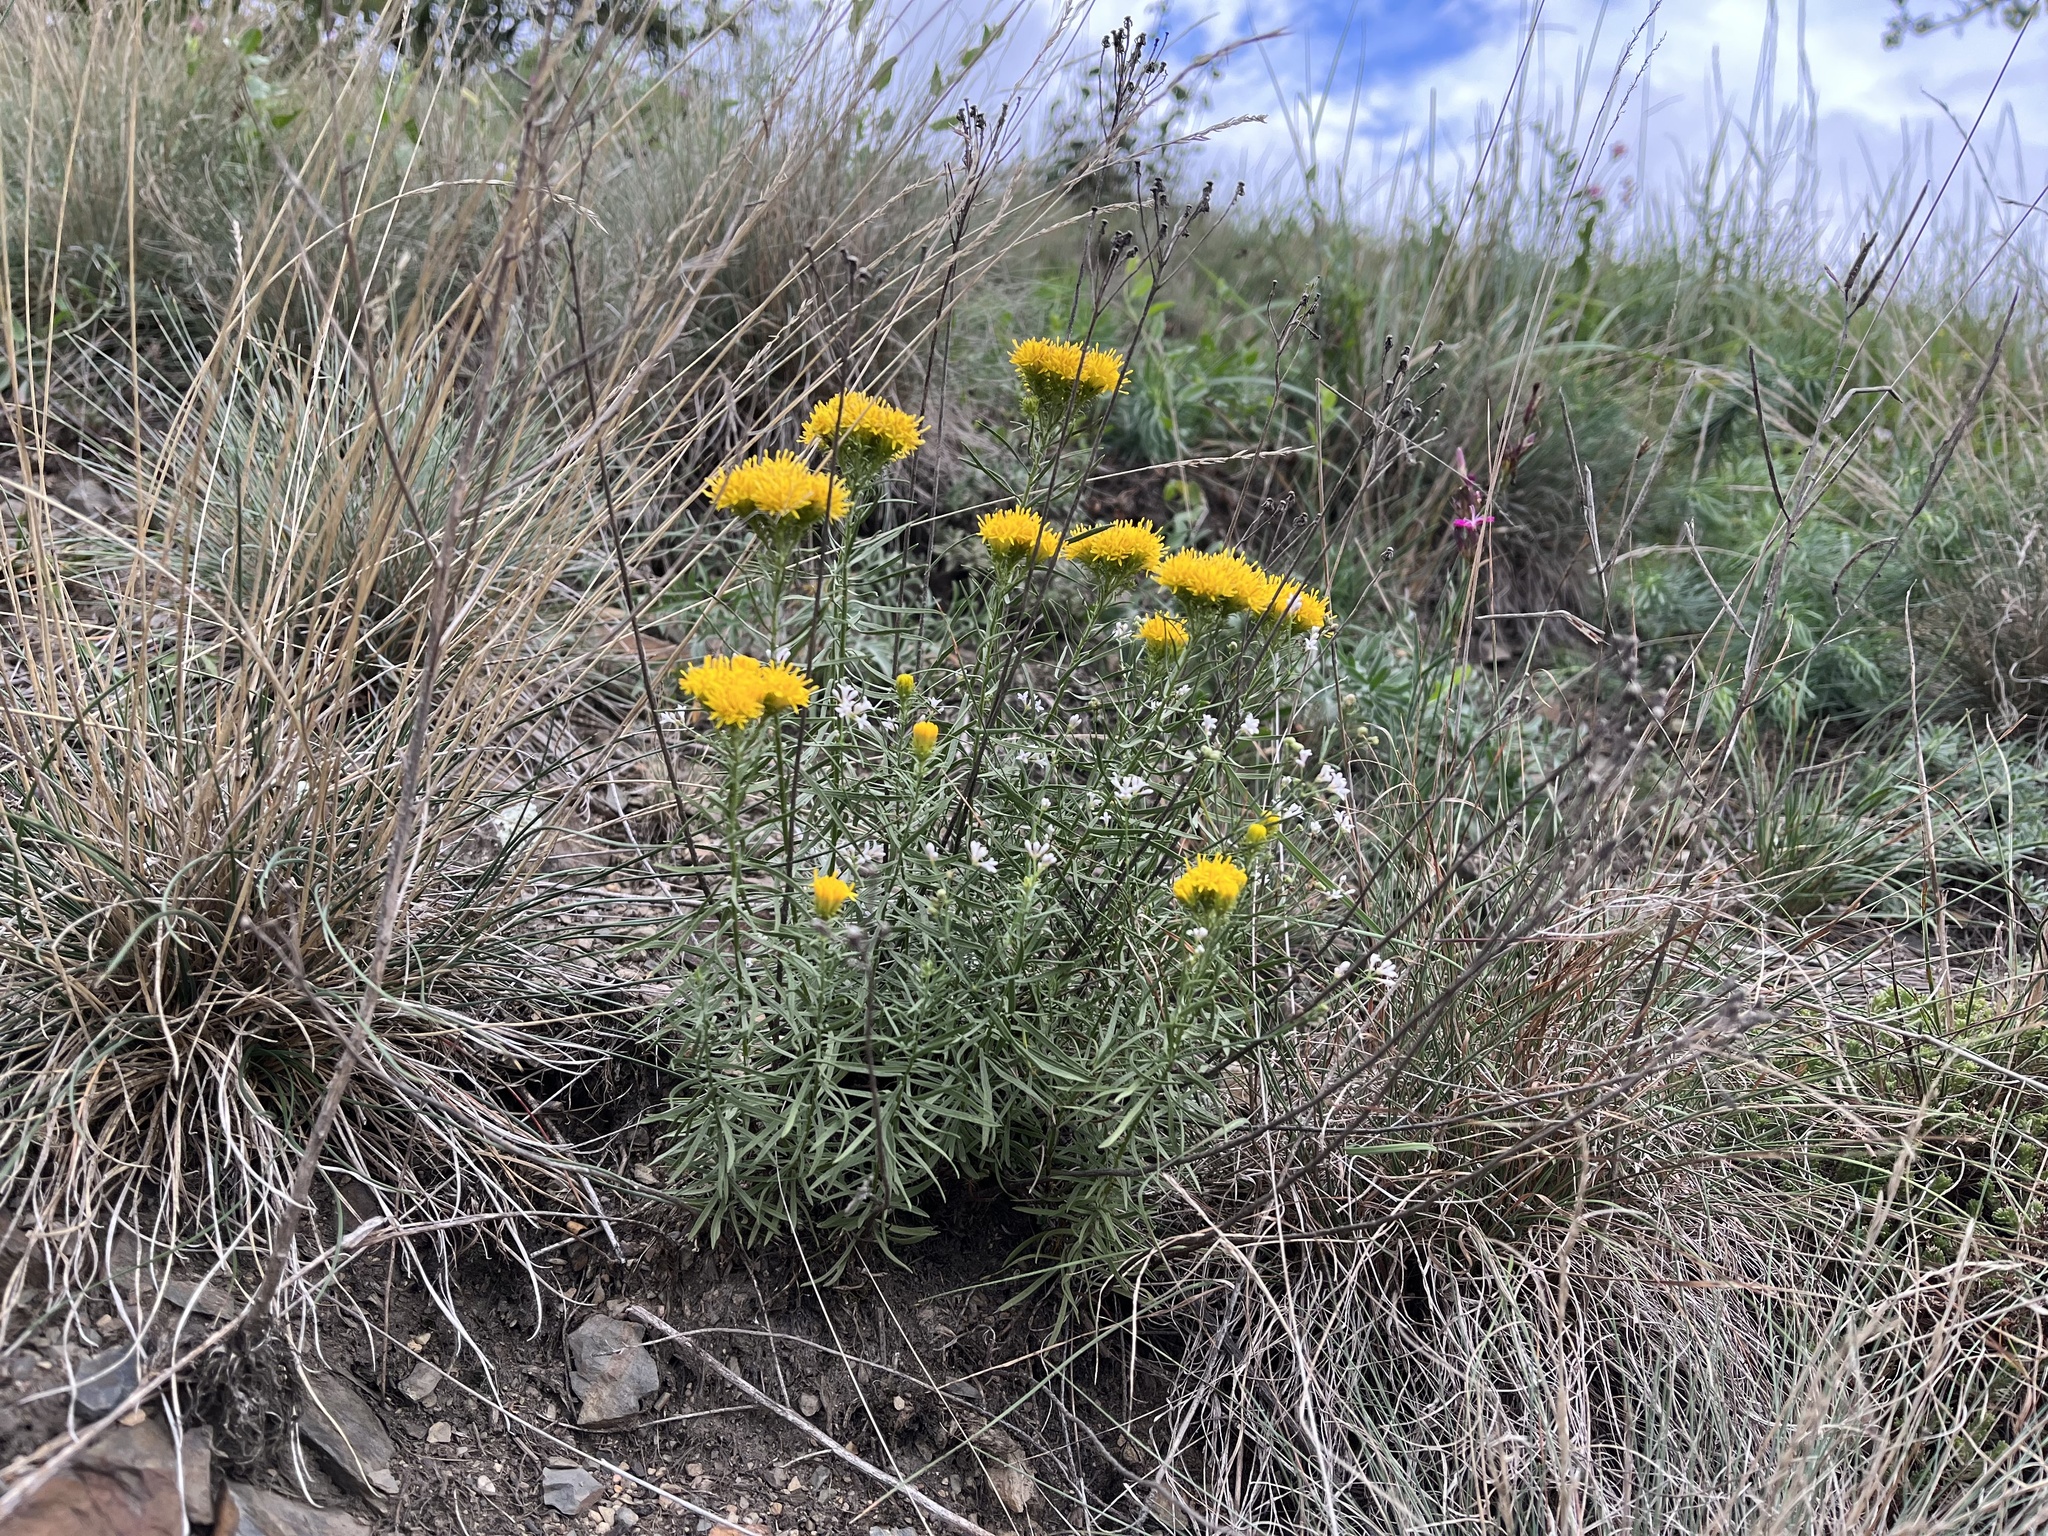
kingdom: Plantae
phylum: Tracheophyta
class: Magnoliopsida
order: Asterales
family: Asteraceae
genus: Galatella
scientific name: Galatella linosyris
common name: Goldilocks aster
